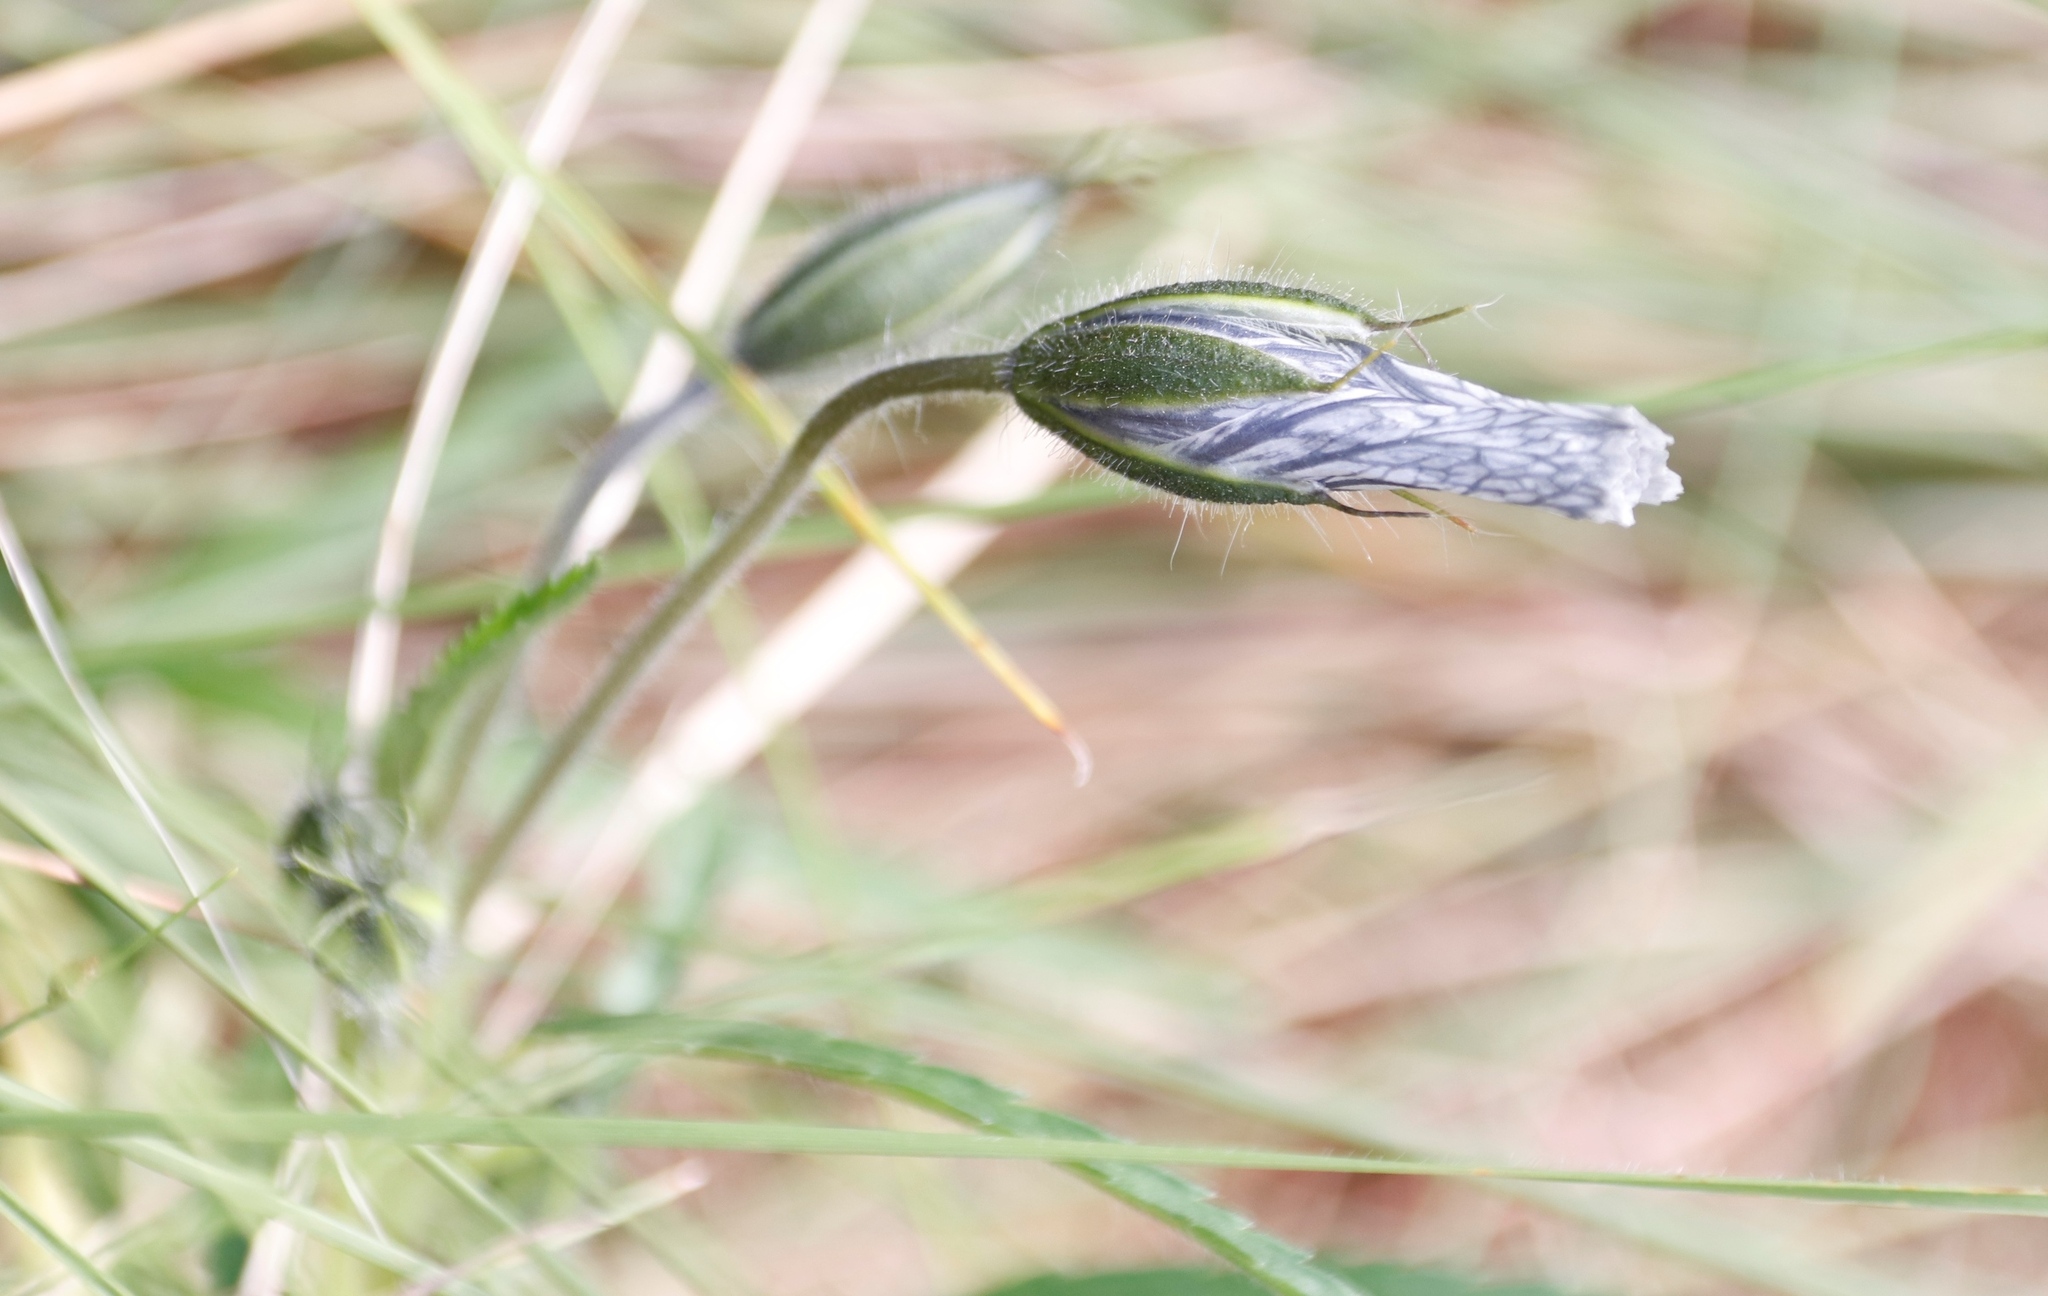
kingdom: Plantae
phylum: Tracheophyta
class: Magnoliopsida
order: Geraniales
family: Geraniaceae
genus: Monsonia
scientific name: Monsonia attenuata
